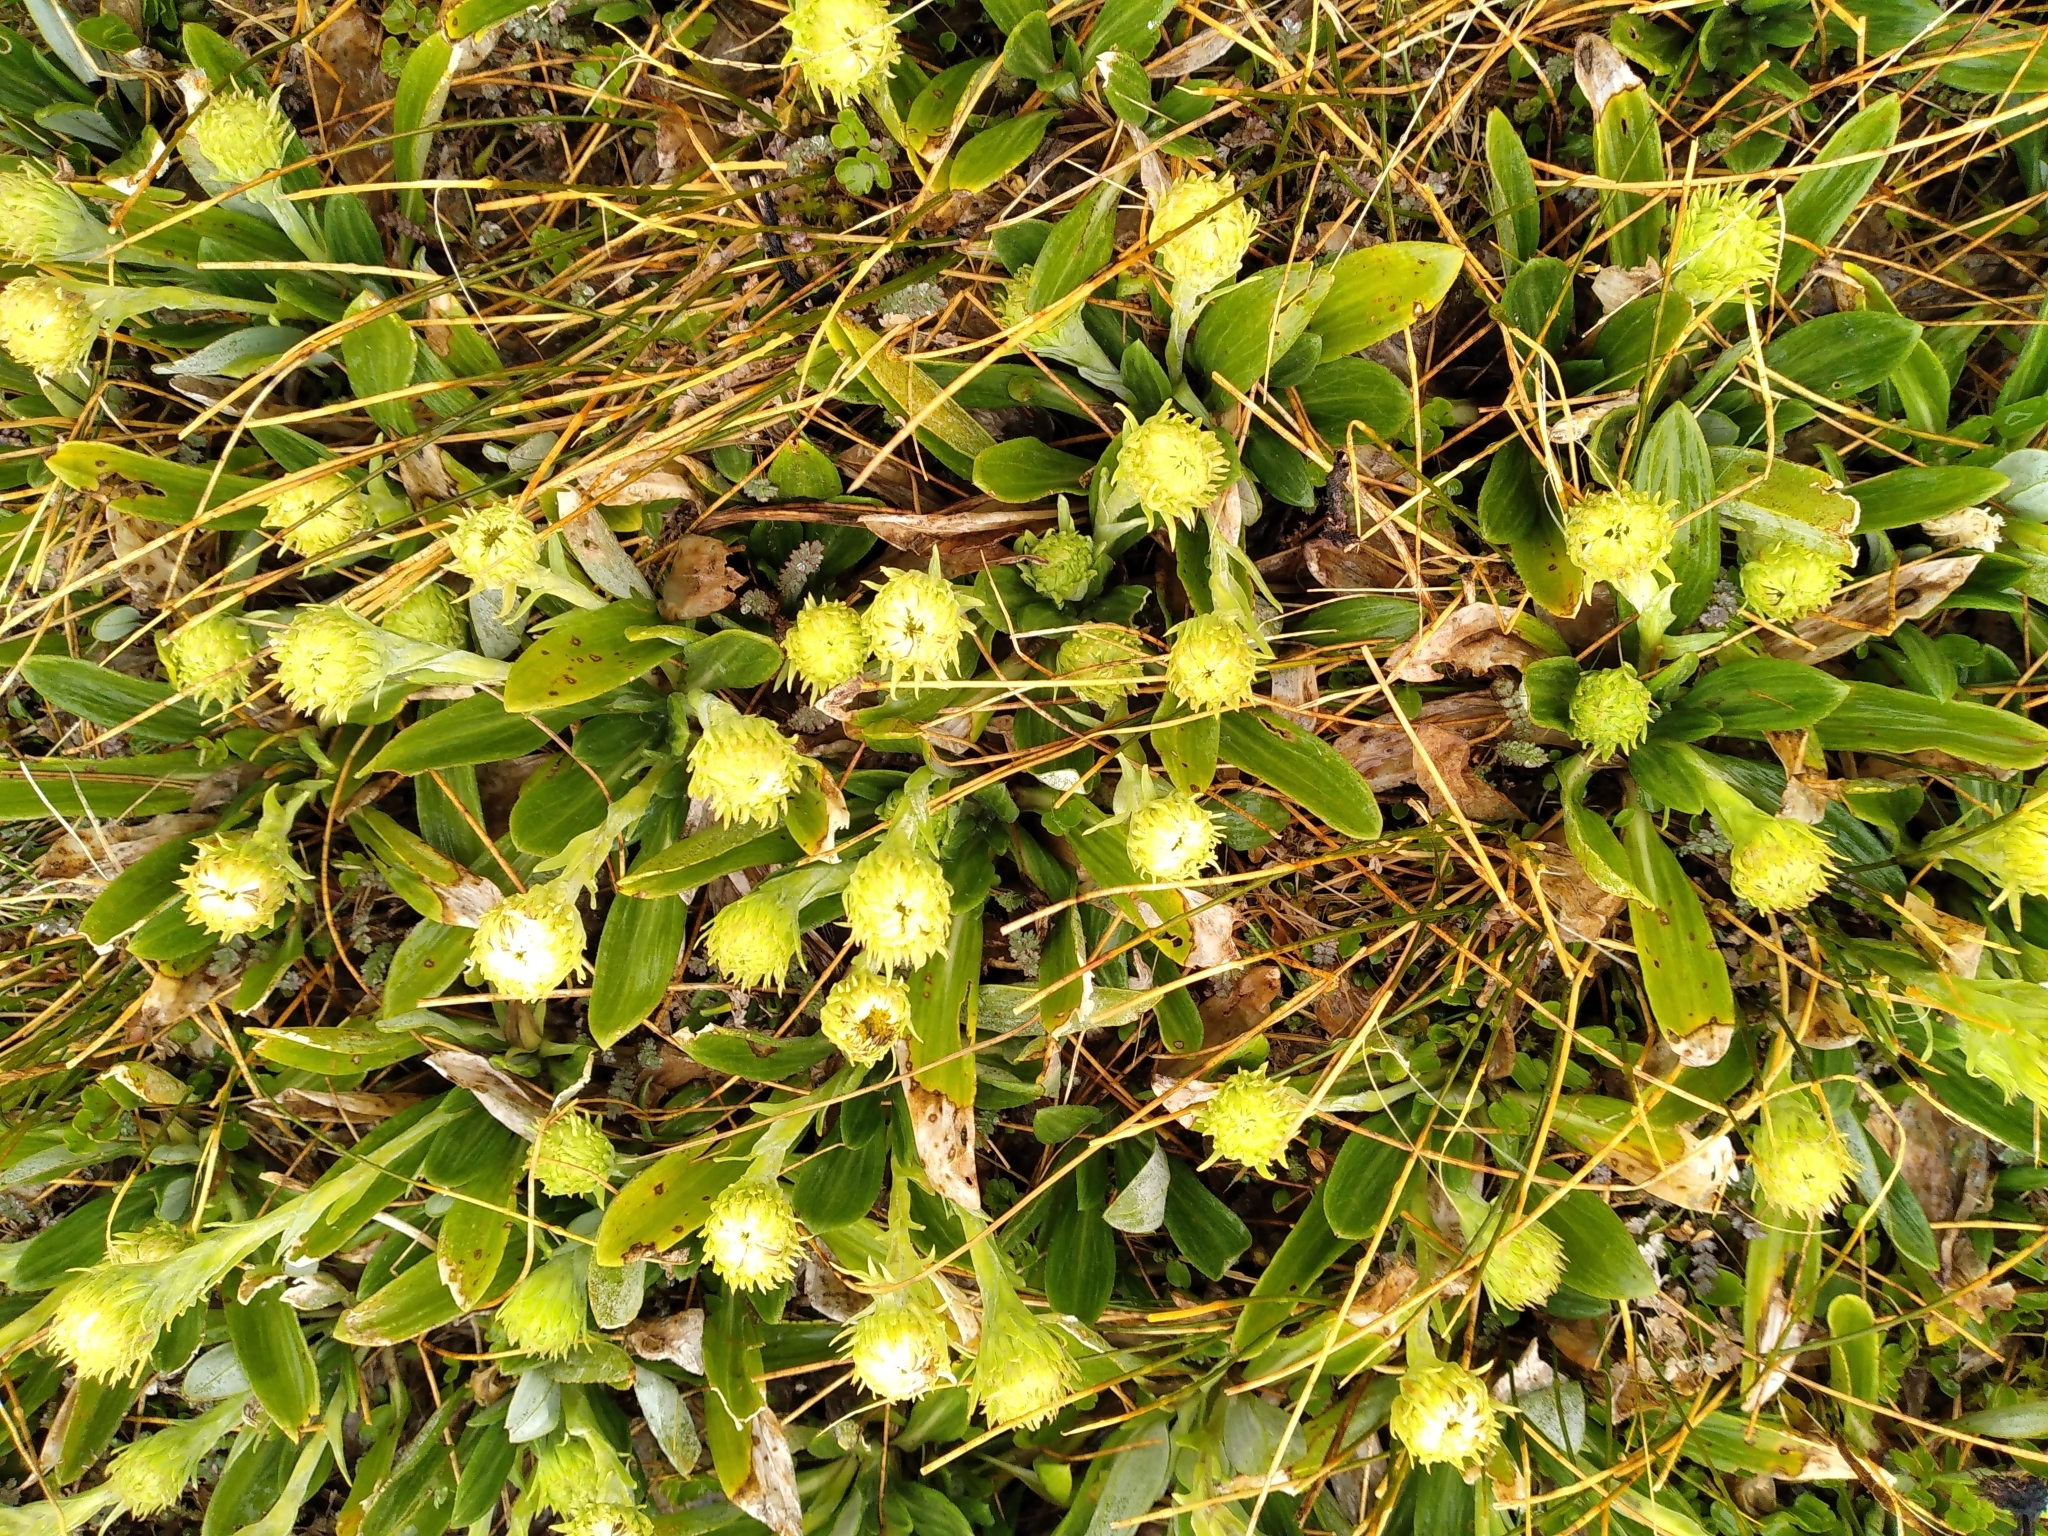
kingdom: Plantae
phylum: Tracheophyta
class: Magnoliopsida
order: Asterales
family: Asteraceae
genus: Celmisia
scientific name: Celmisia haastii
